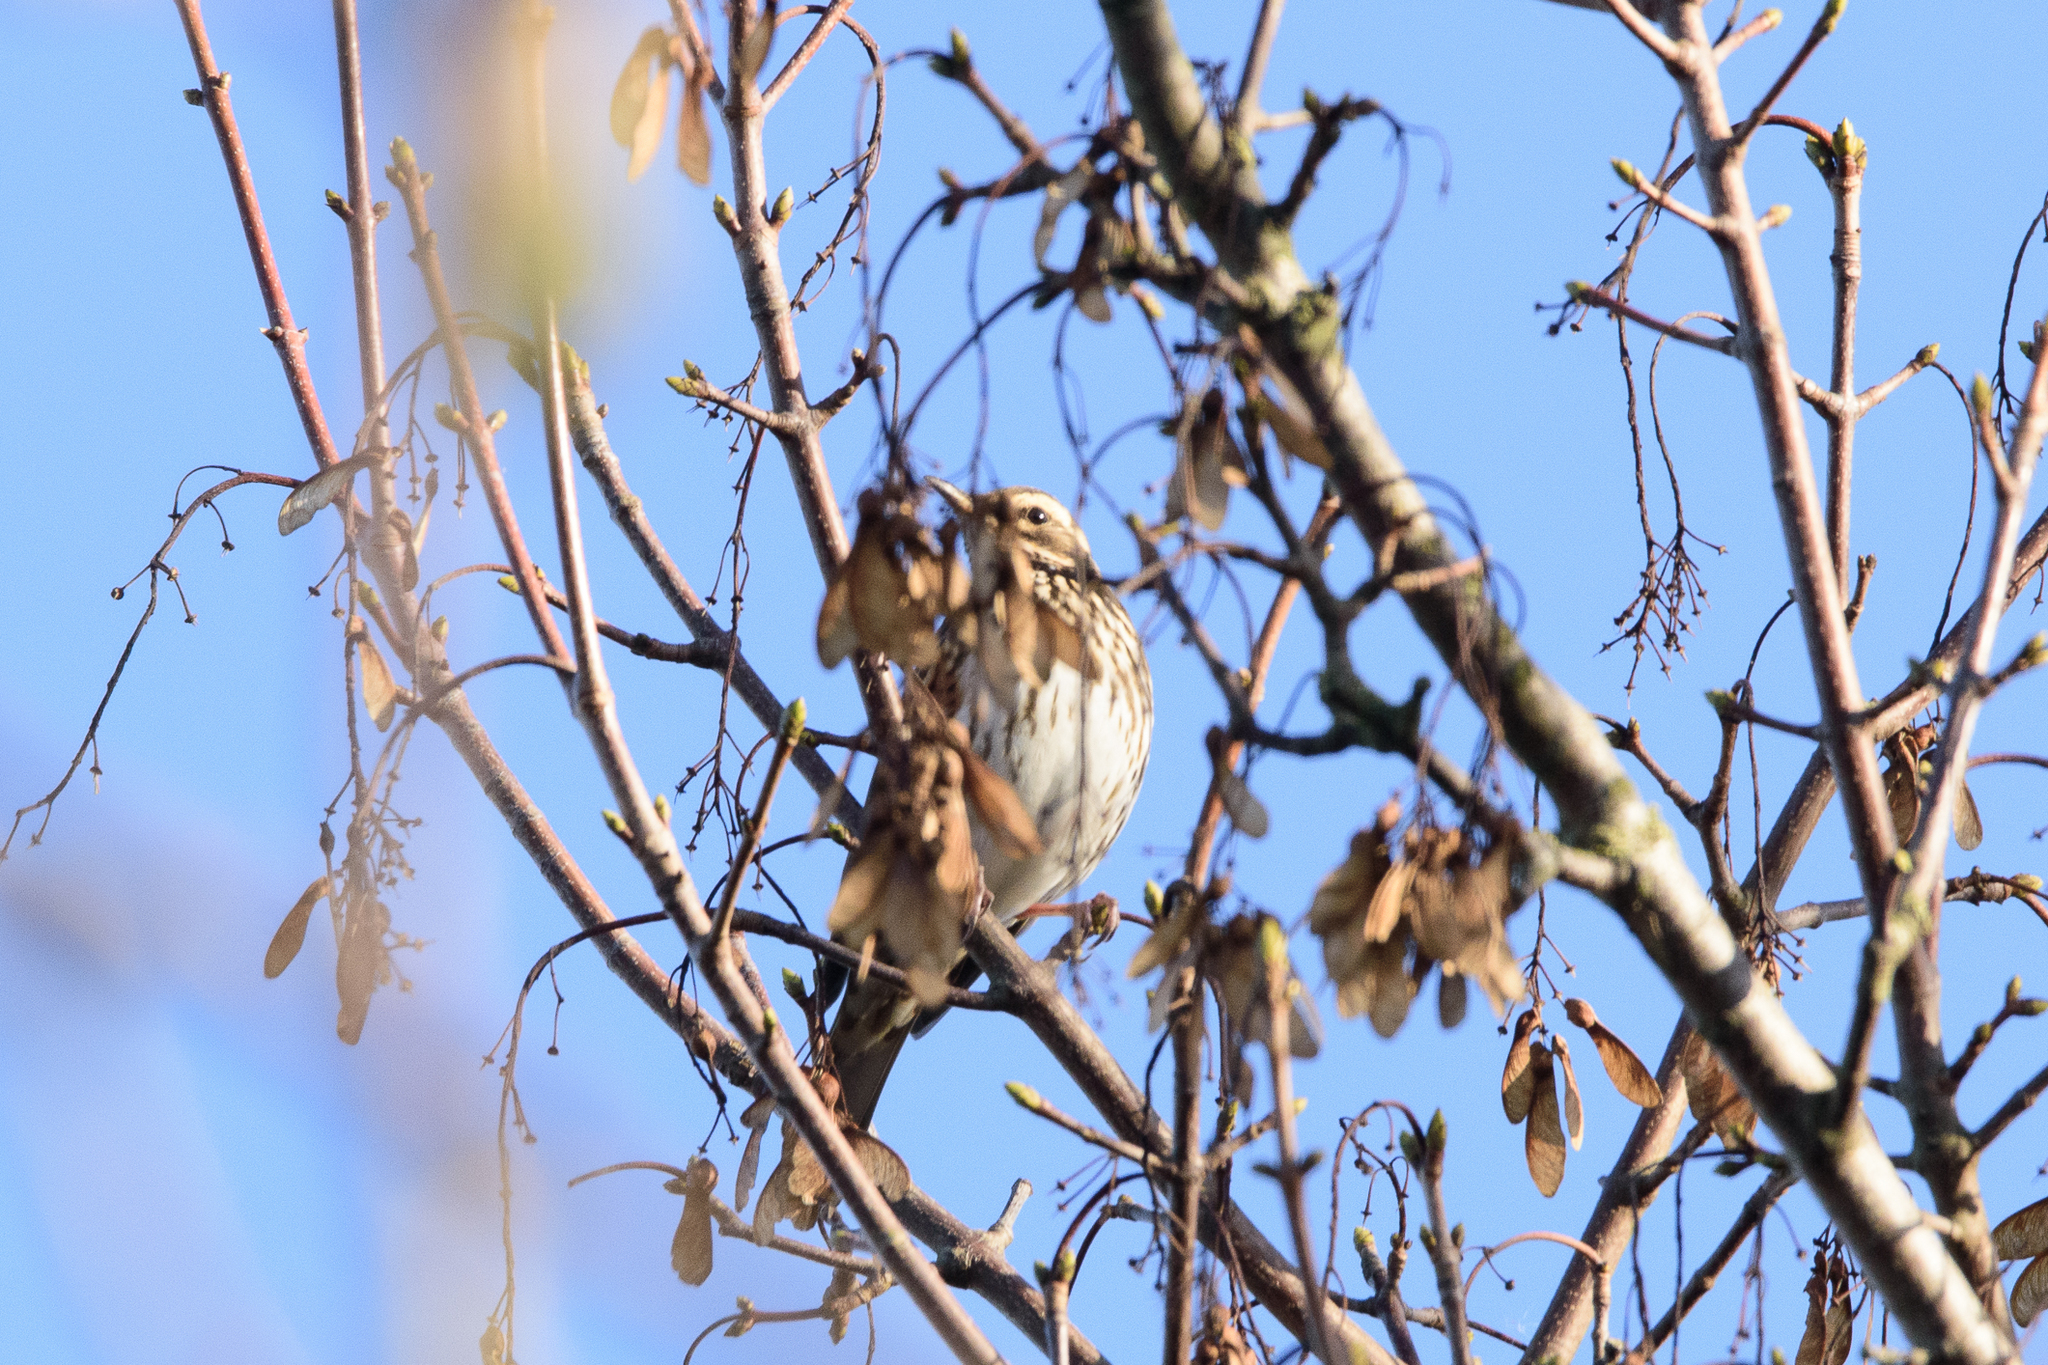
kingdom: Animalia
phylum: Chordata
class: Aves
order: Passeriformes
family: Turdidae
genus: Turdus
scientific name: Turdus iliacus
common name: Redwing
